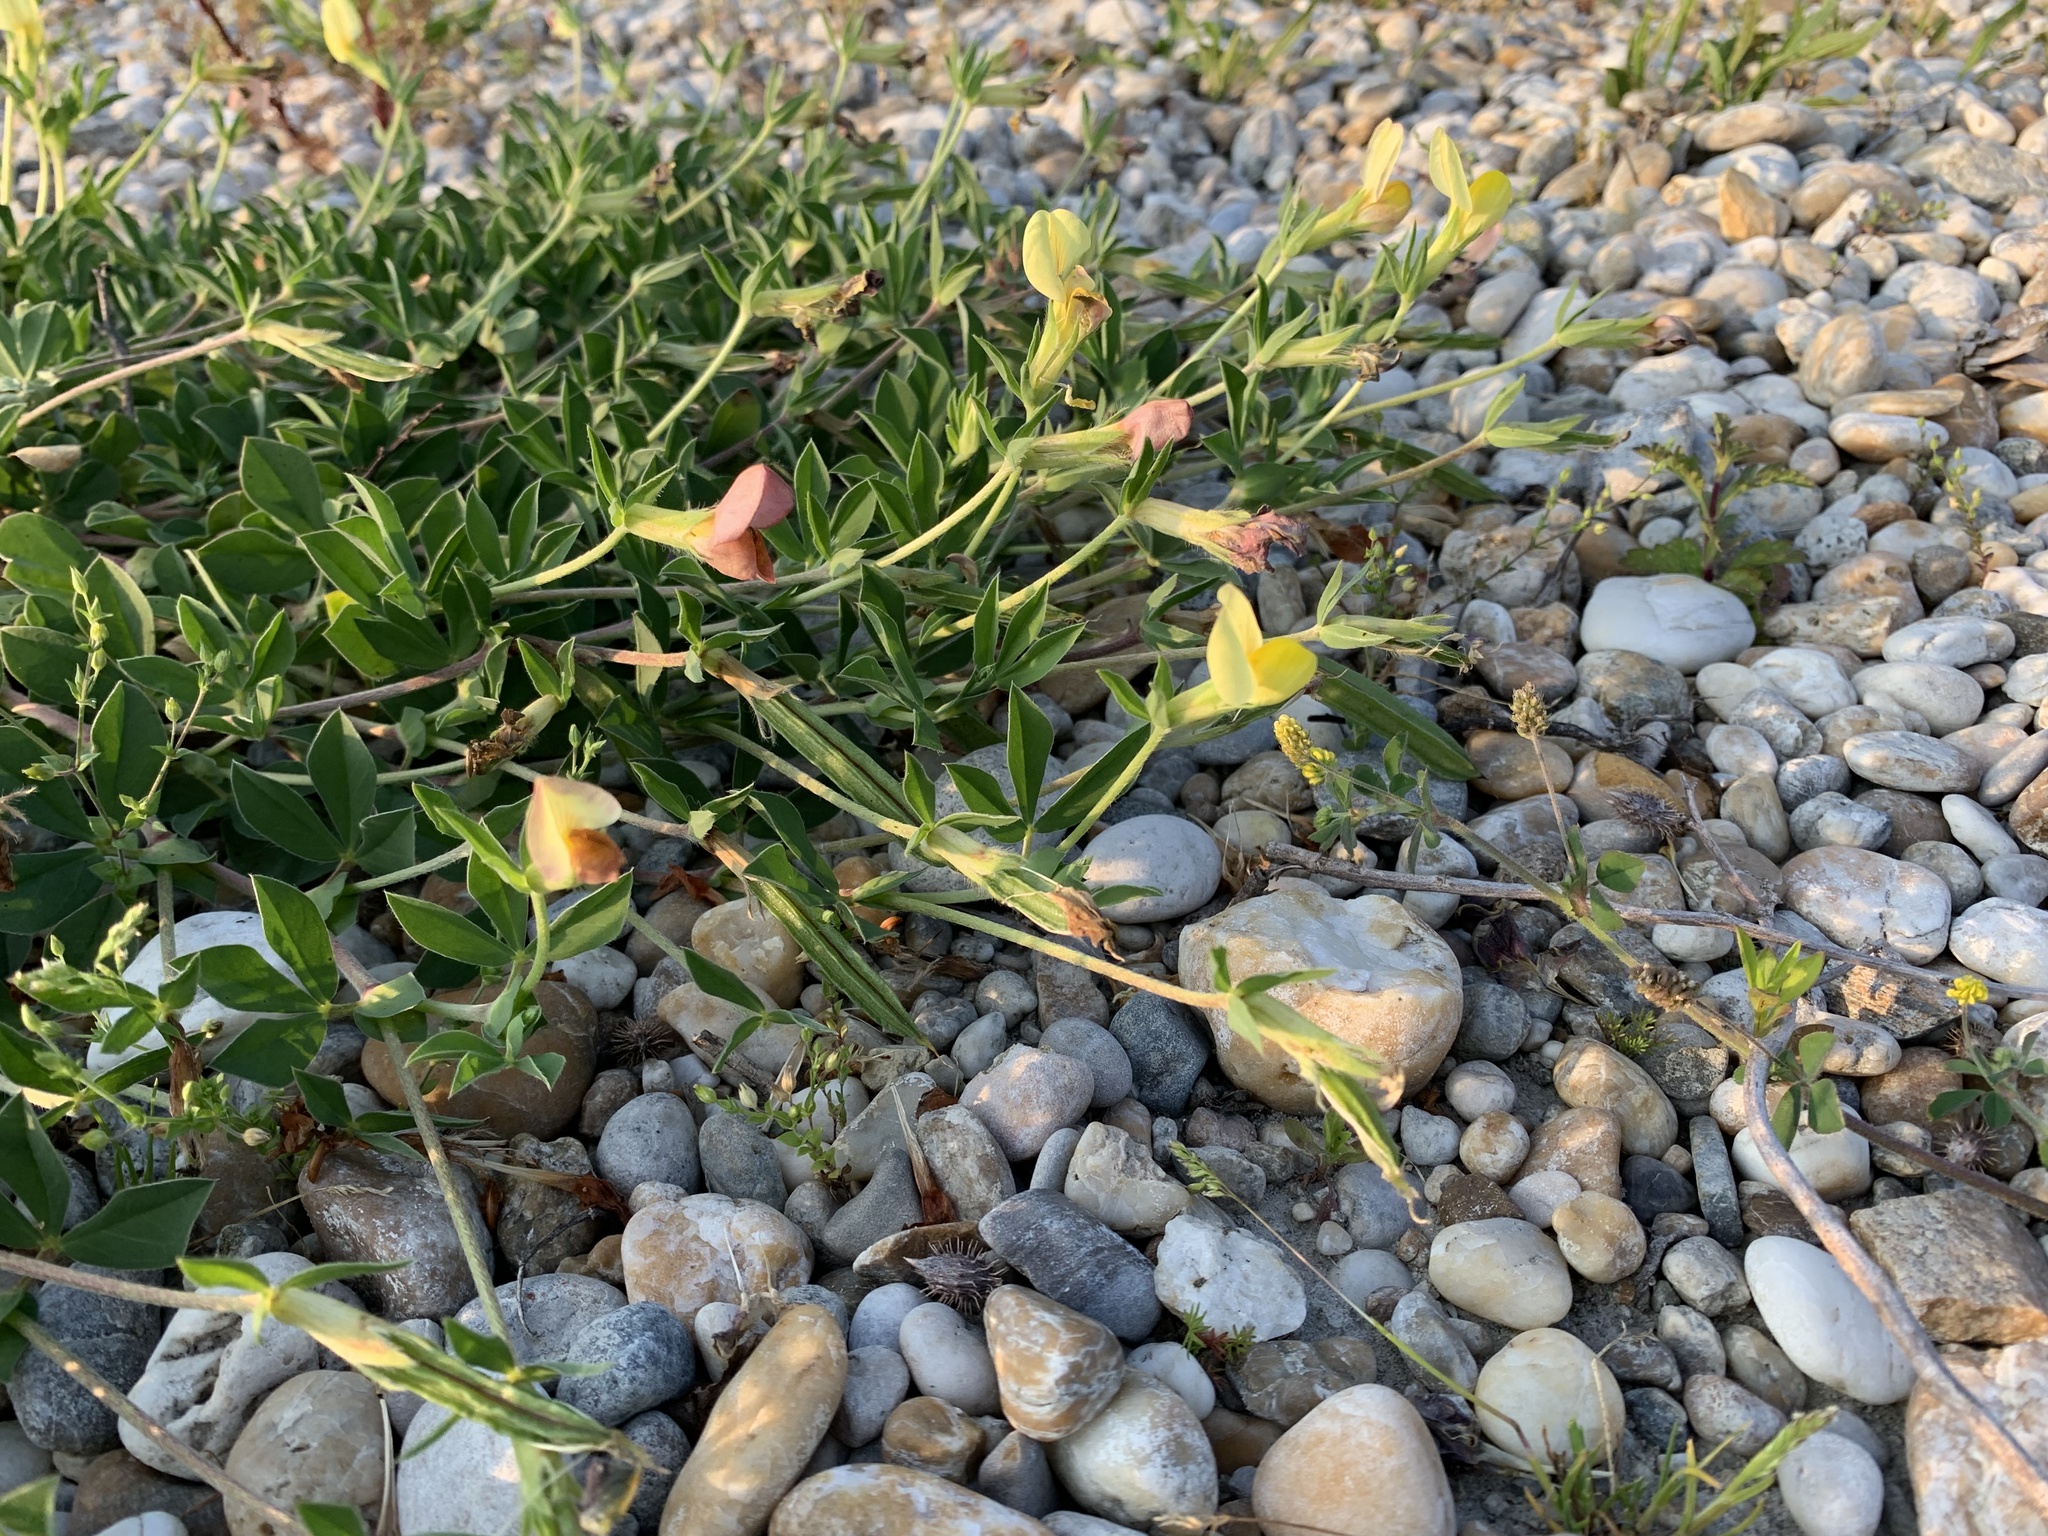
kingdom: Plantae
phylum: Tracheophyta
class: Magnoliopsida
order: Fabales
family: Fabaceae
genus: Lotus
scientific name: Lotus maritimus
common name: Dragon's-teeth
